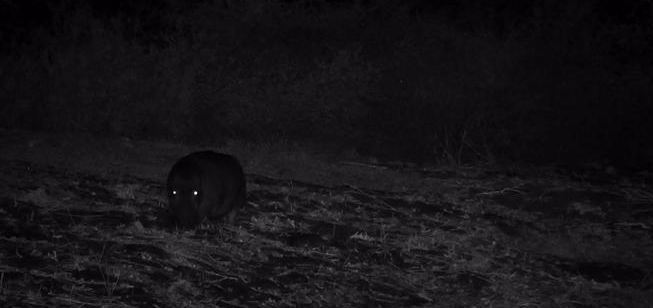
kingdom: Animalia
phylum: Chordata
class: Mammalia
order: Artiodactyla
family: Hippopotamidae
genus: Hippopotamus
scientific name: Hippopotamus amphibius
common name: Common hippopotamus
